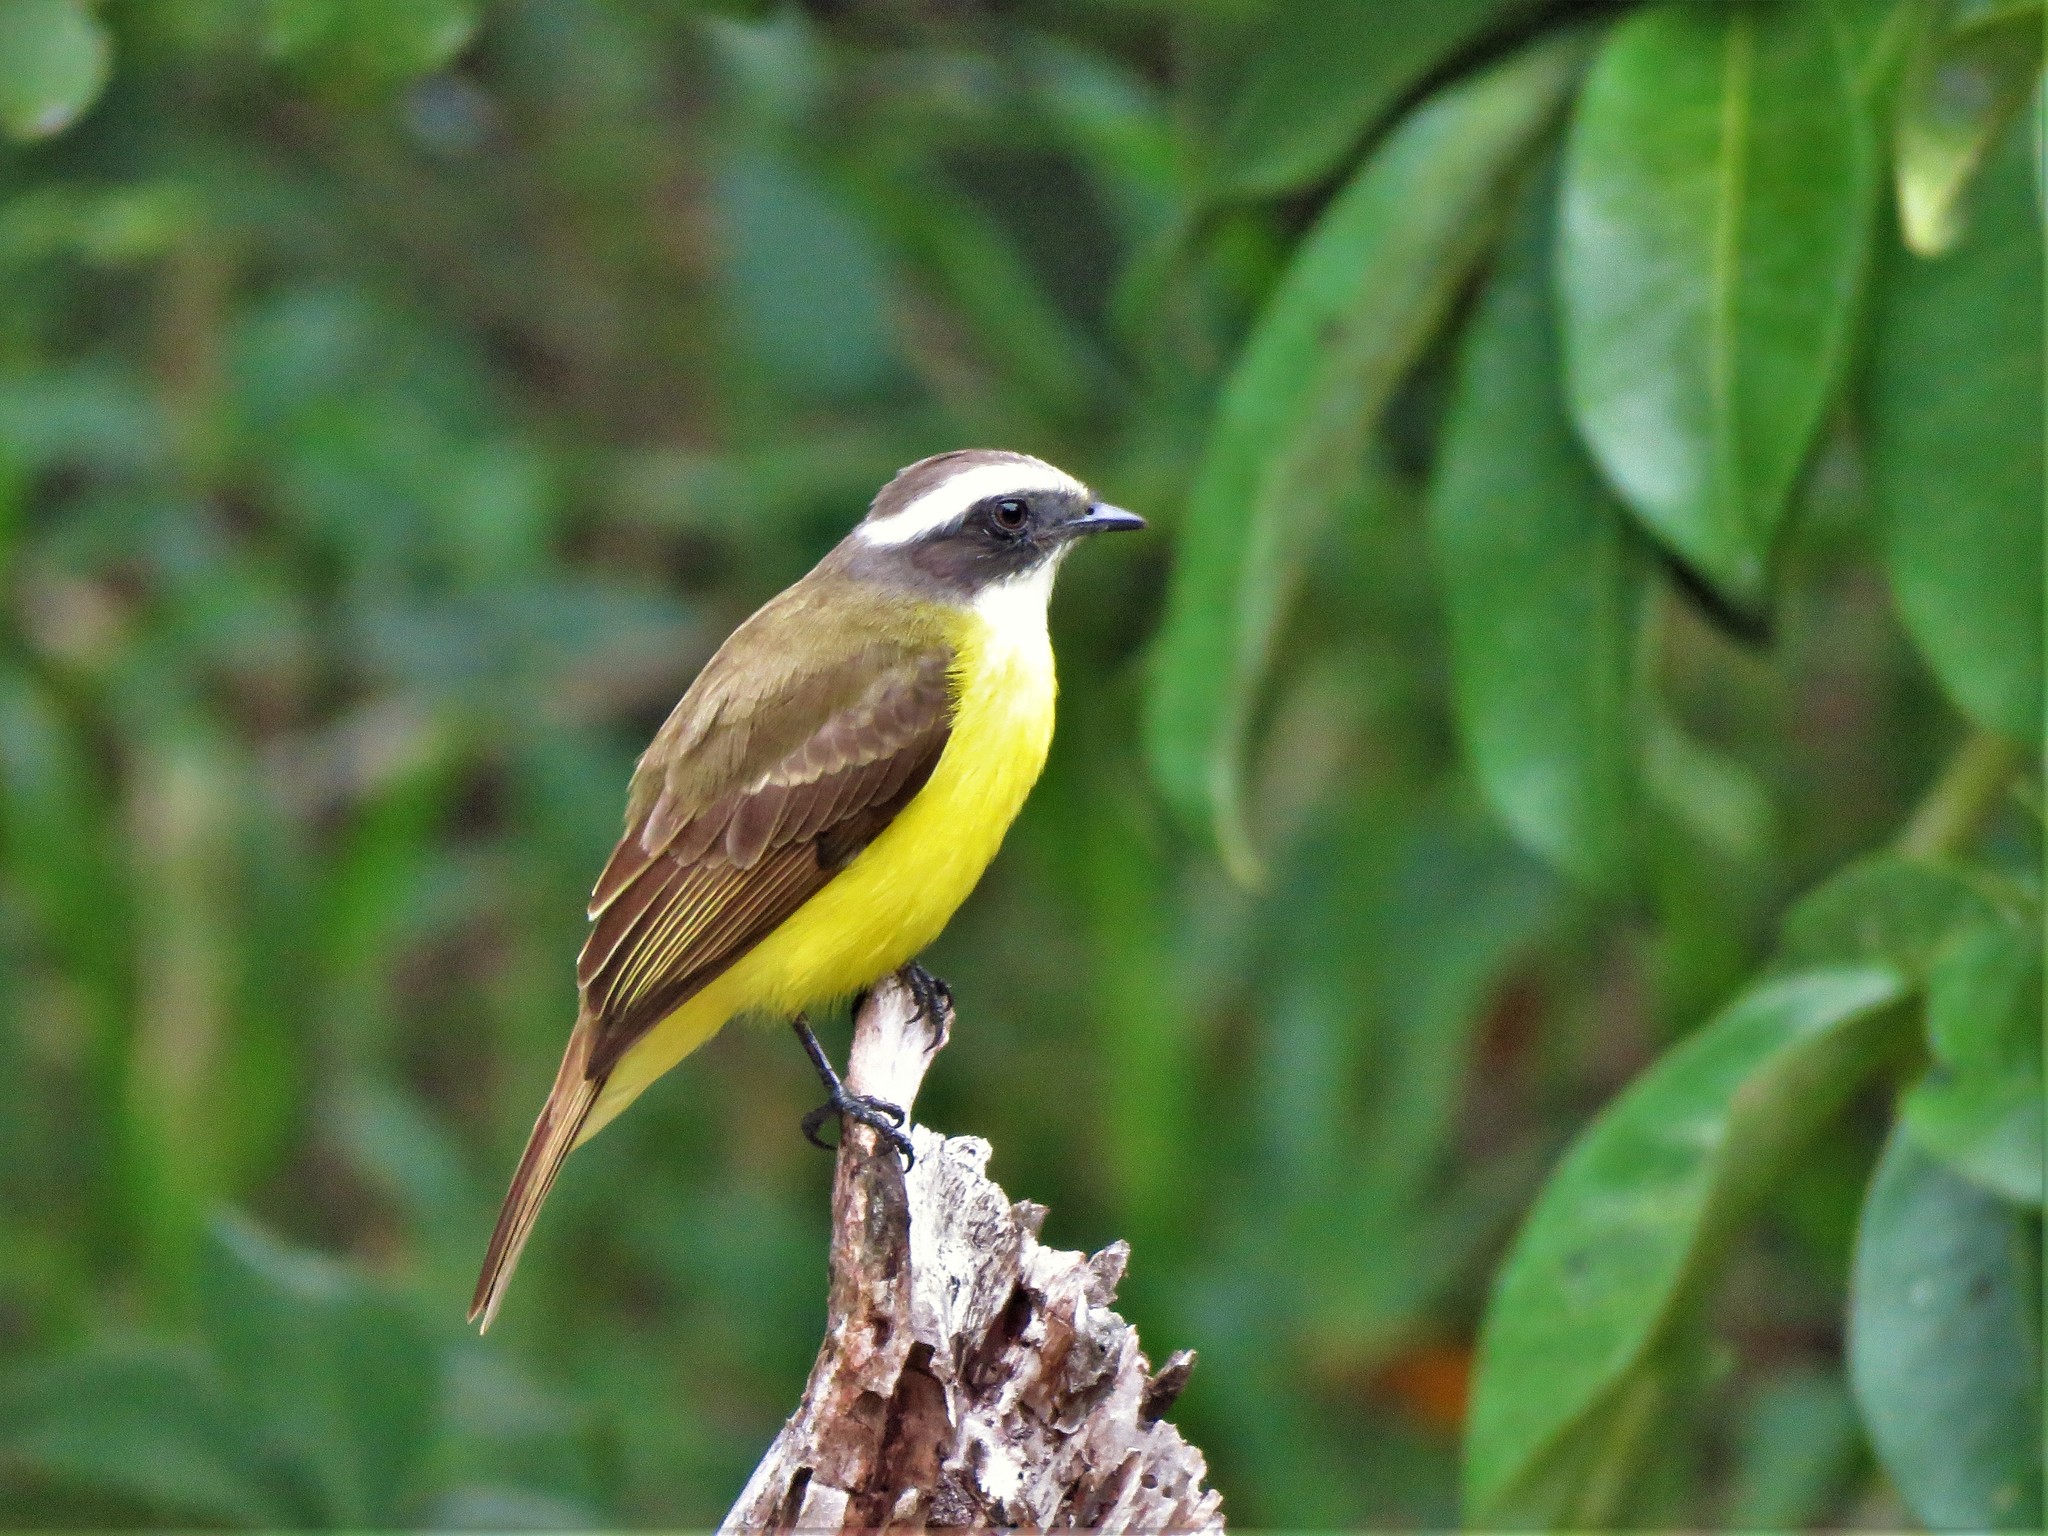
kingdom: Animalia
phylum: Chordata
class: Aves
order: Passeriformes
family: Tyrannidae
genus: Myiozetetes
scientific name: Myiozetetes similis
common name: Social flycatcher
